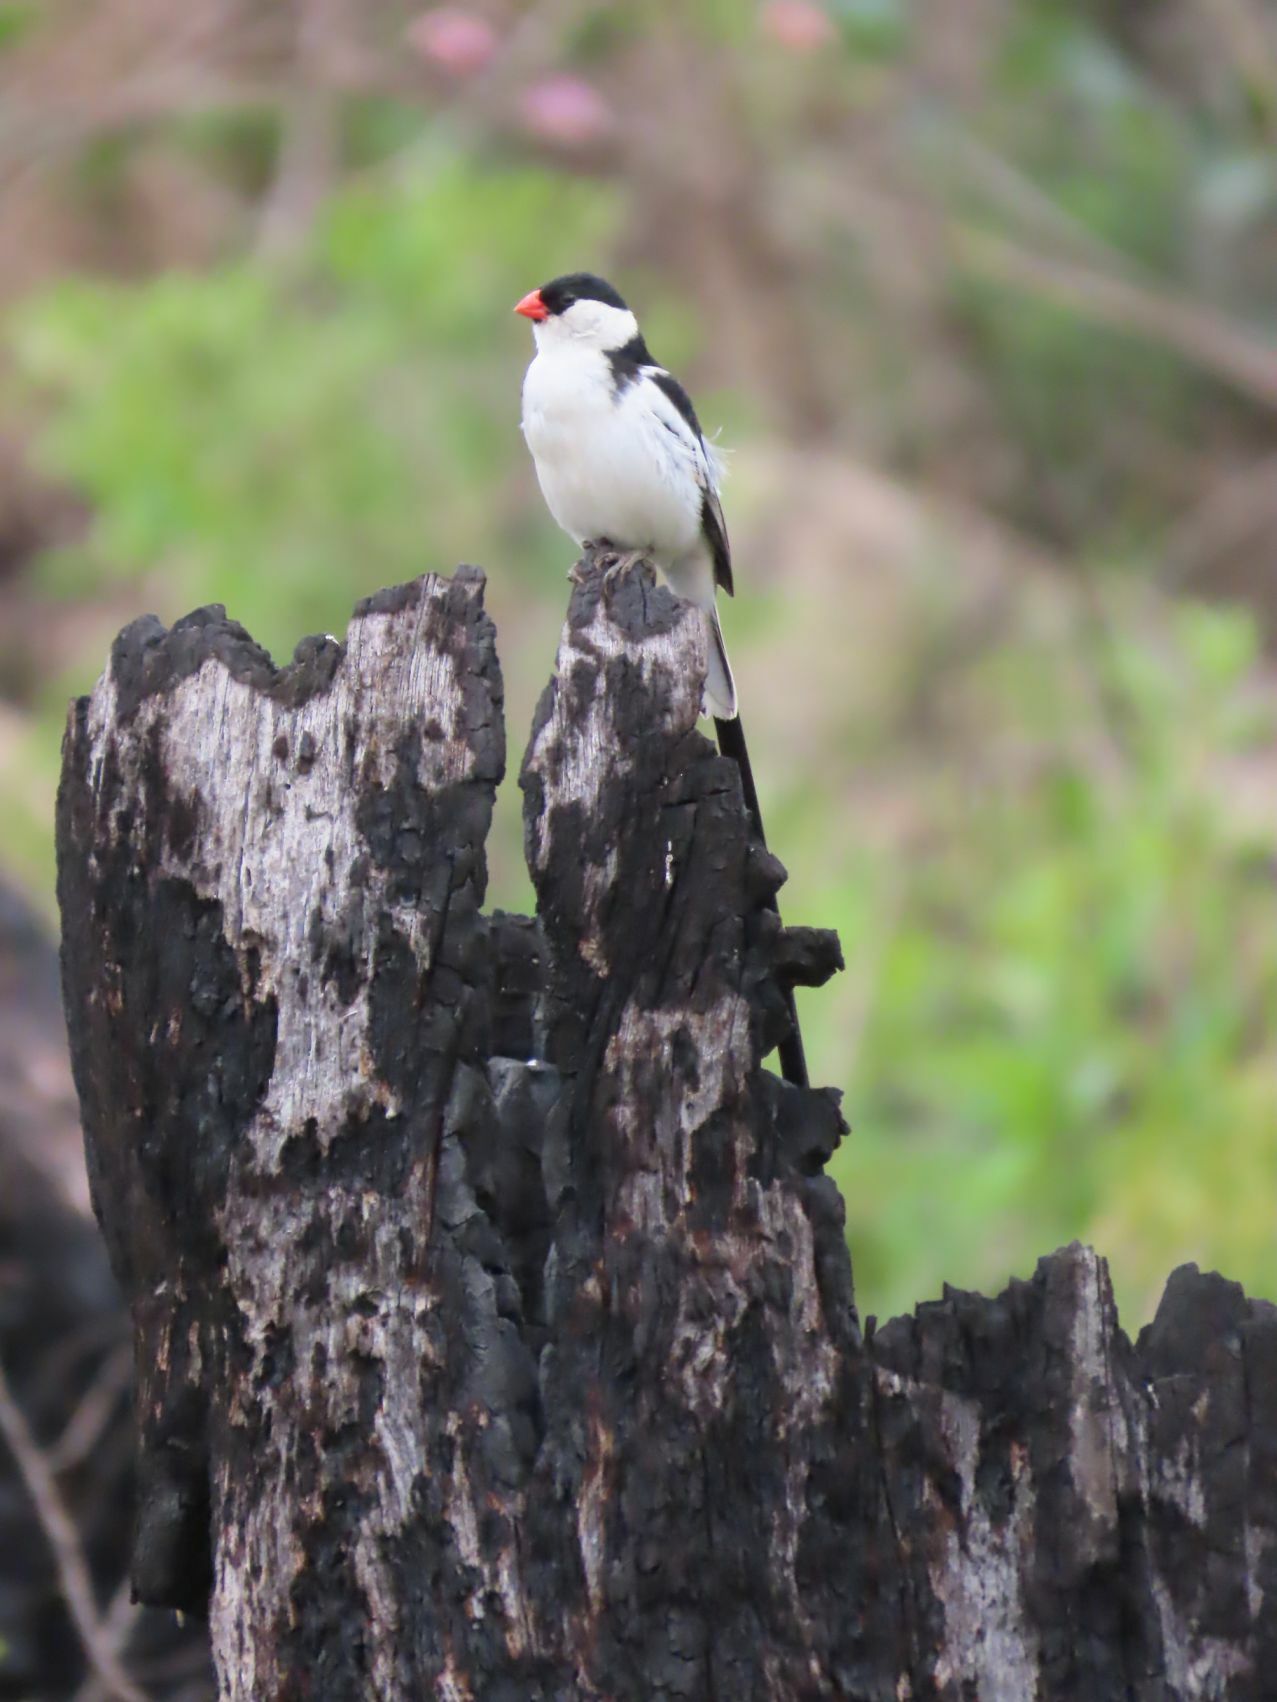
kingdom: Animalia
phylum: Chordata
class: Aves
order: Passeriformes
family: Viduidae
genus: Vidua
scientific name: Vidua macroura
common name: Pin-tailed whydah
